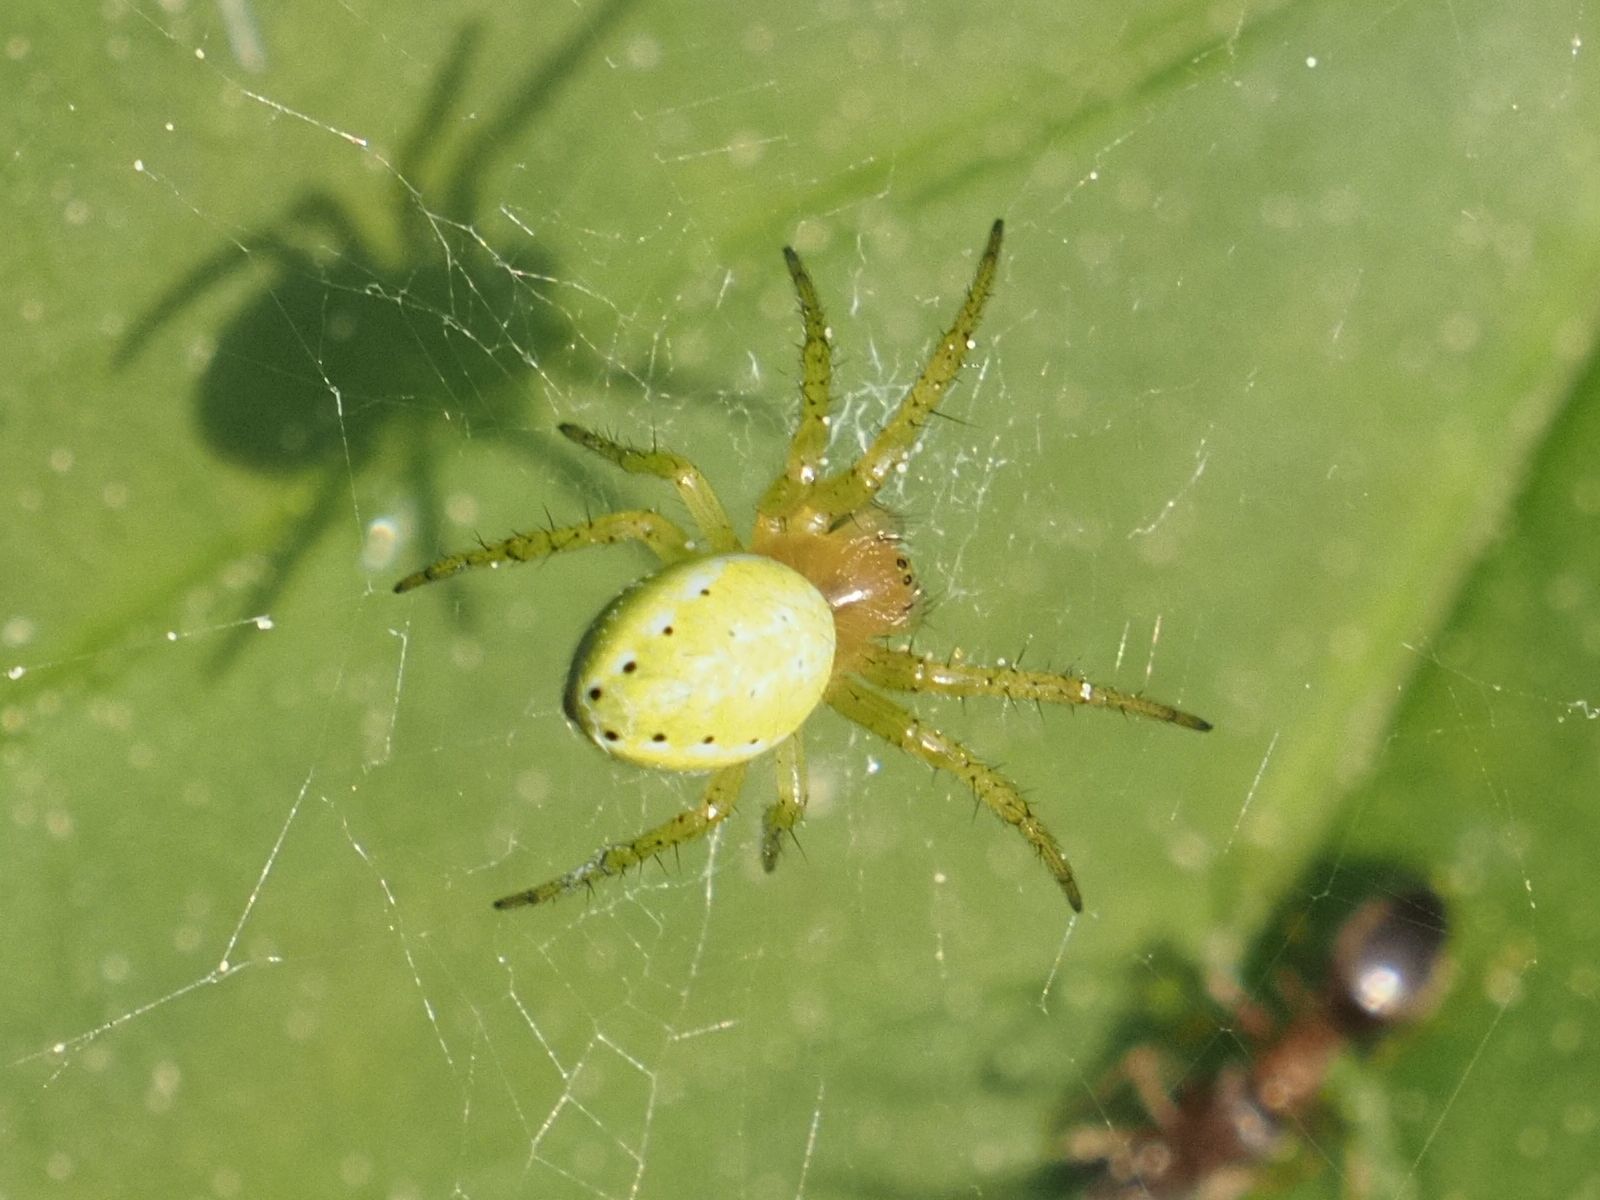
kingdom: Animalia
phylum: Arthropoda
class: Arachnida
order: Araneae
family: Araneidae
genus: Araniella
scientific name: Araniella
